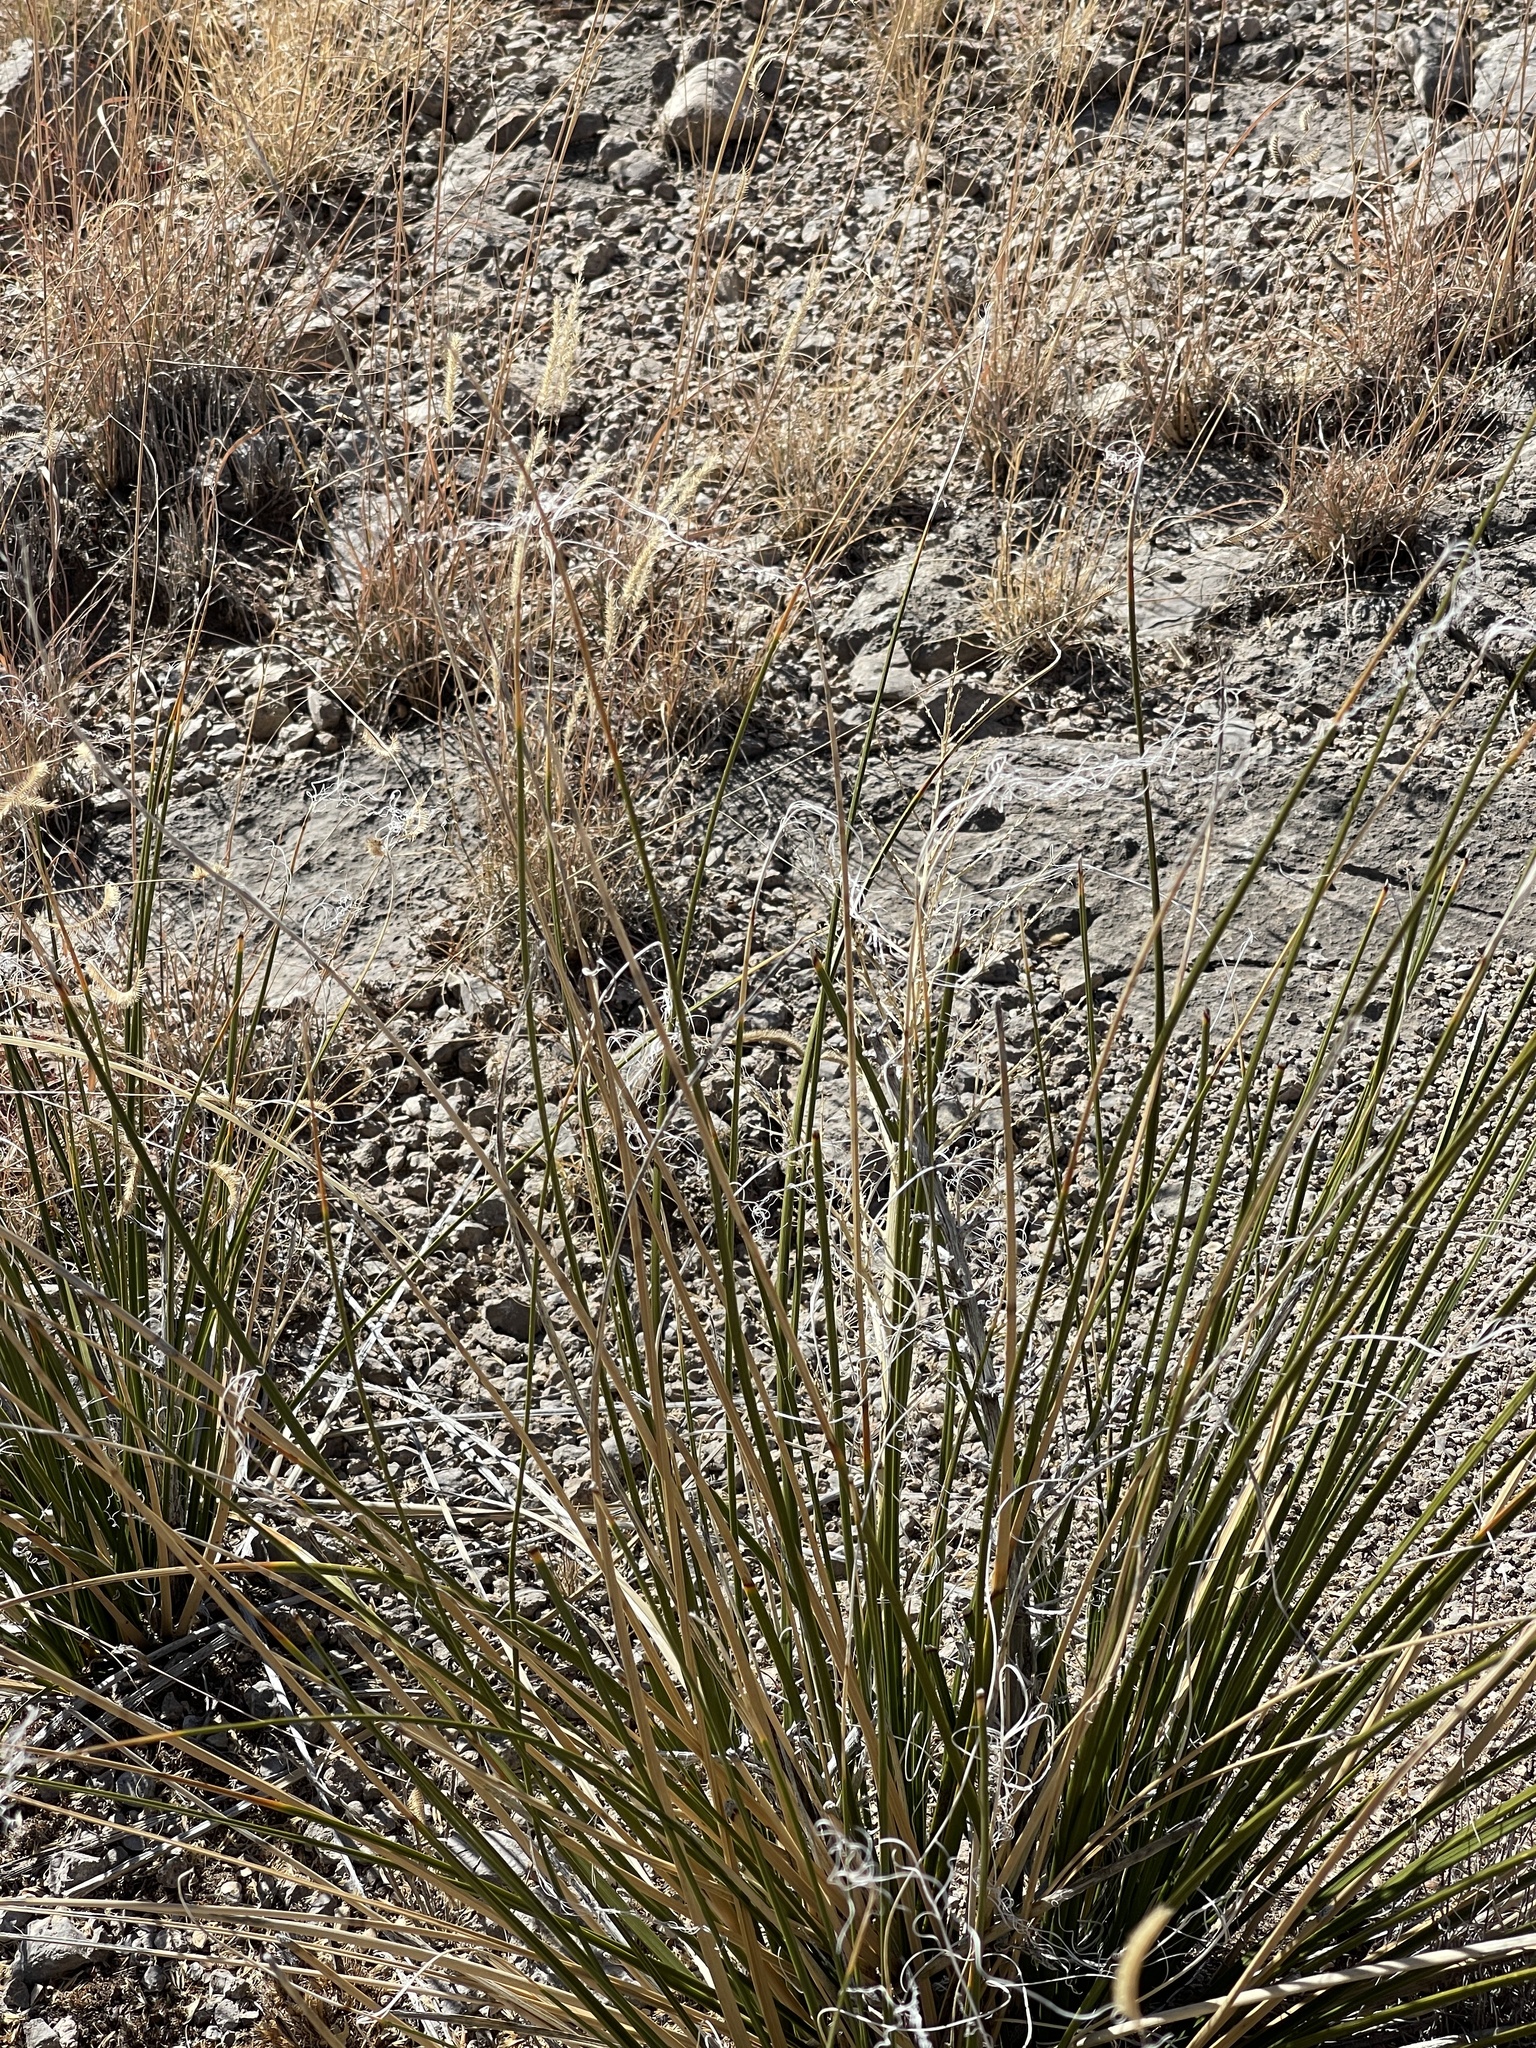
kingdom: Plantae
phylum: Tracheophyta
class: Liliopsida
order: Asparagales
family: Asparagaceae
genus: Nolina
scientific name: Nolina microcarpa
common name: Bear-grass
